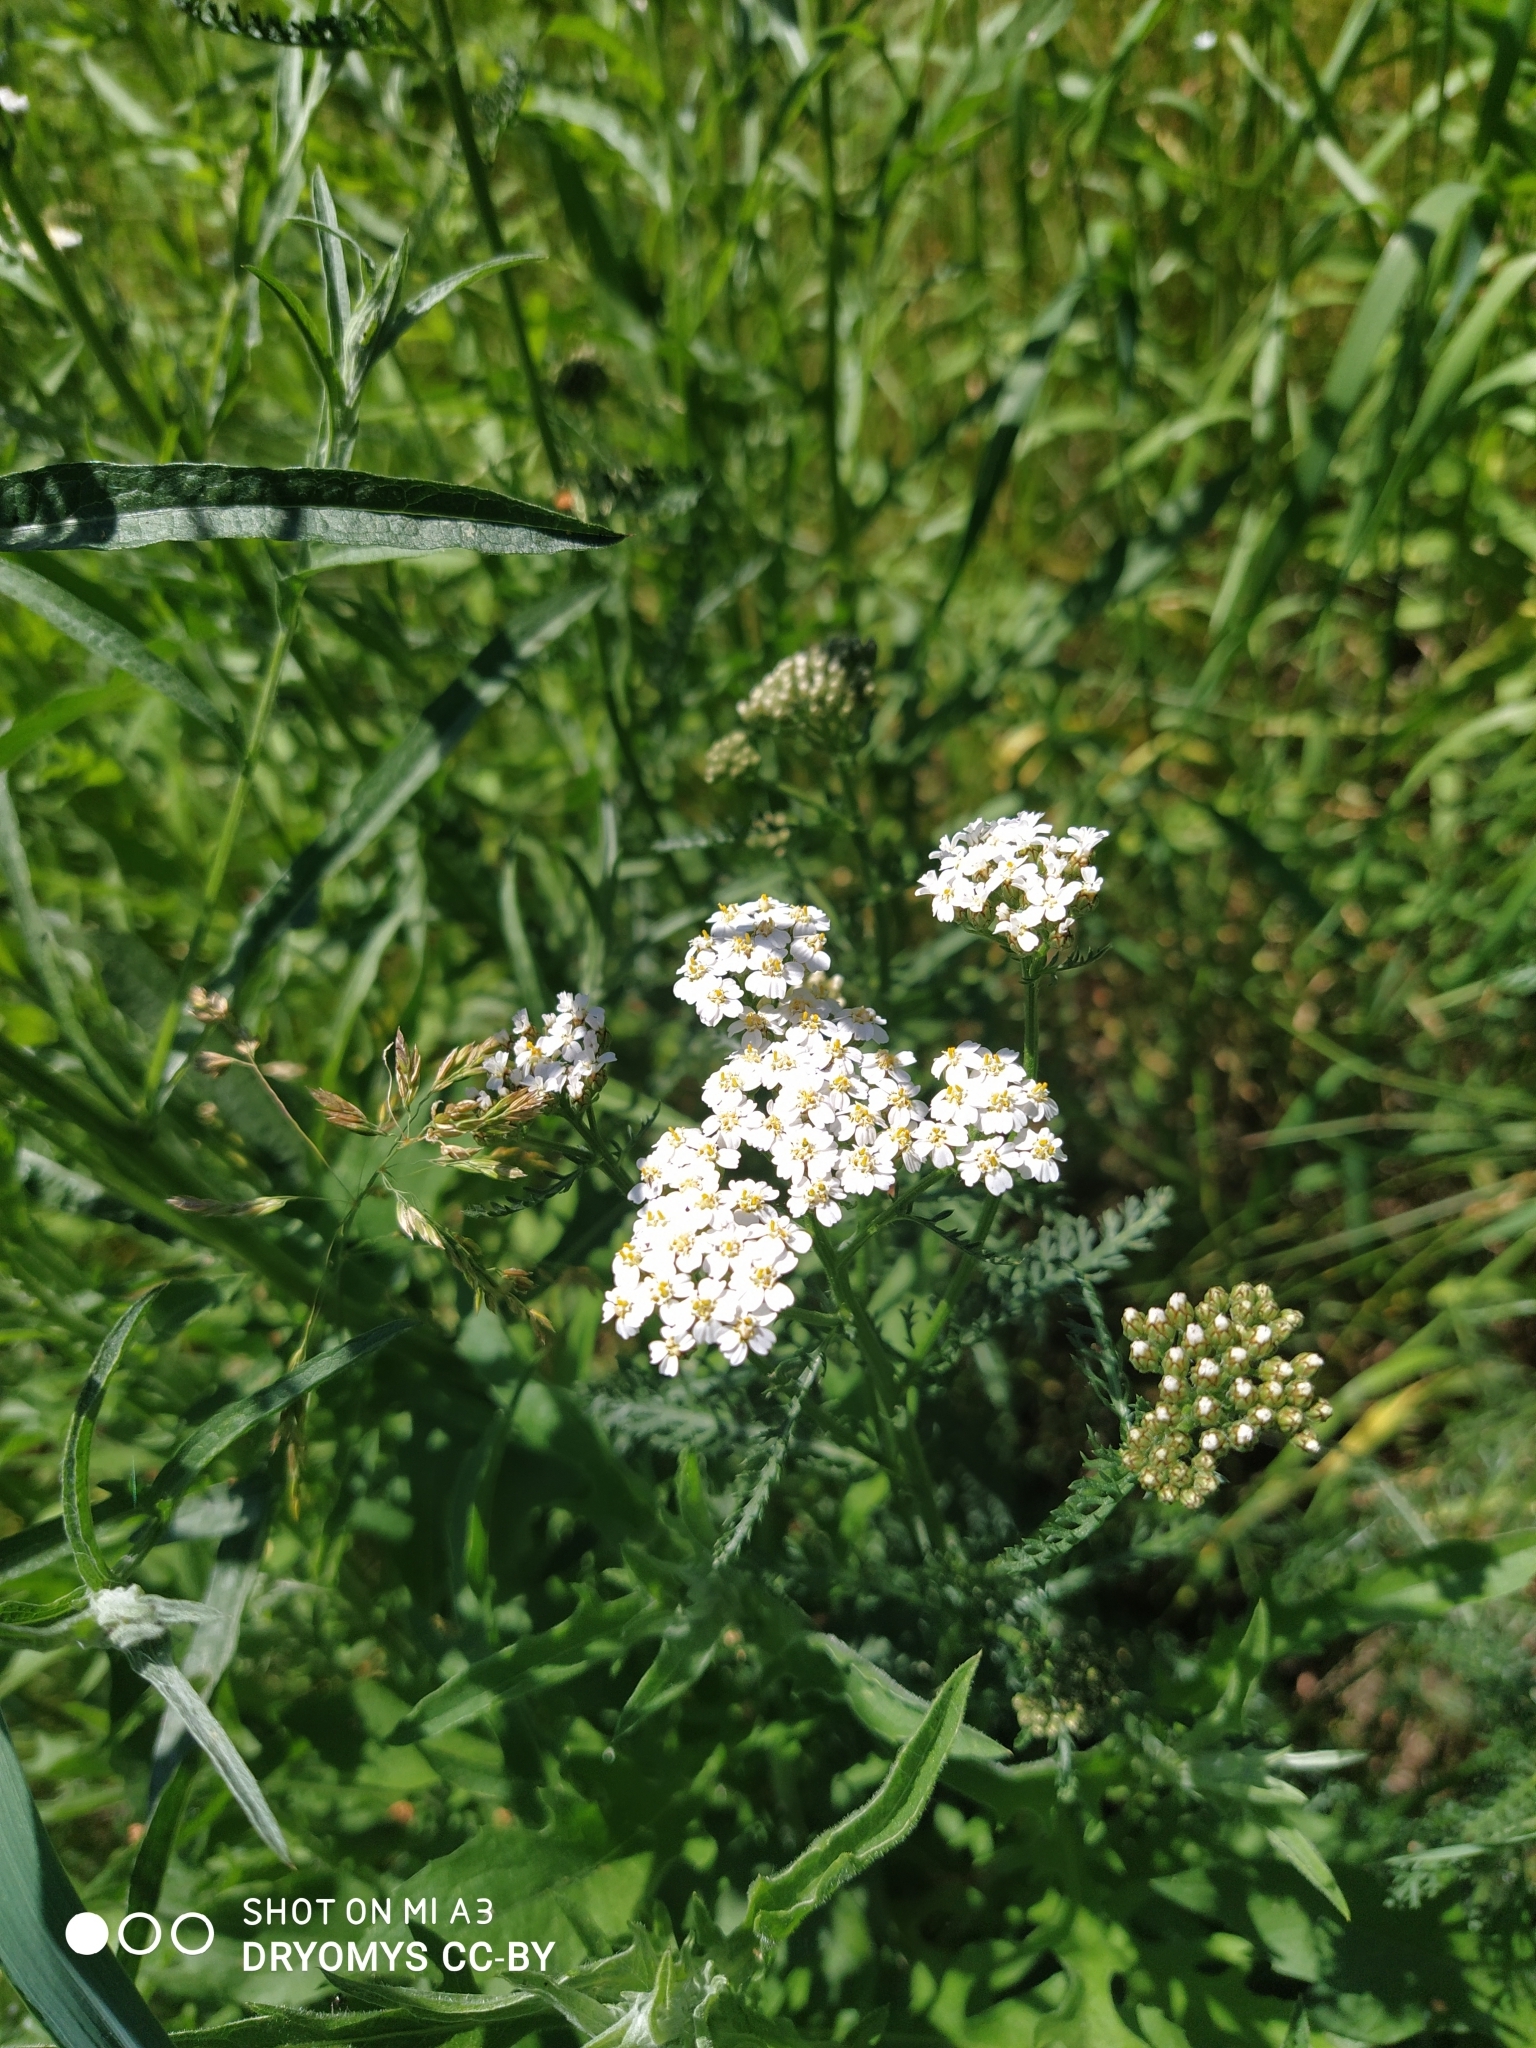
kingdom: Plantae
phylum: Tracheophyta
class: Magnoliopsida
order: Asterales
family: Asteraceae
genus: Achillea
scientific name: Achillea millefolium
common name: Yarrow
